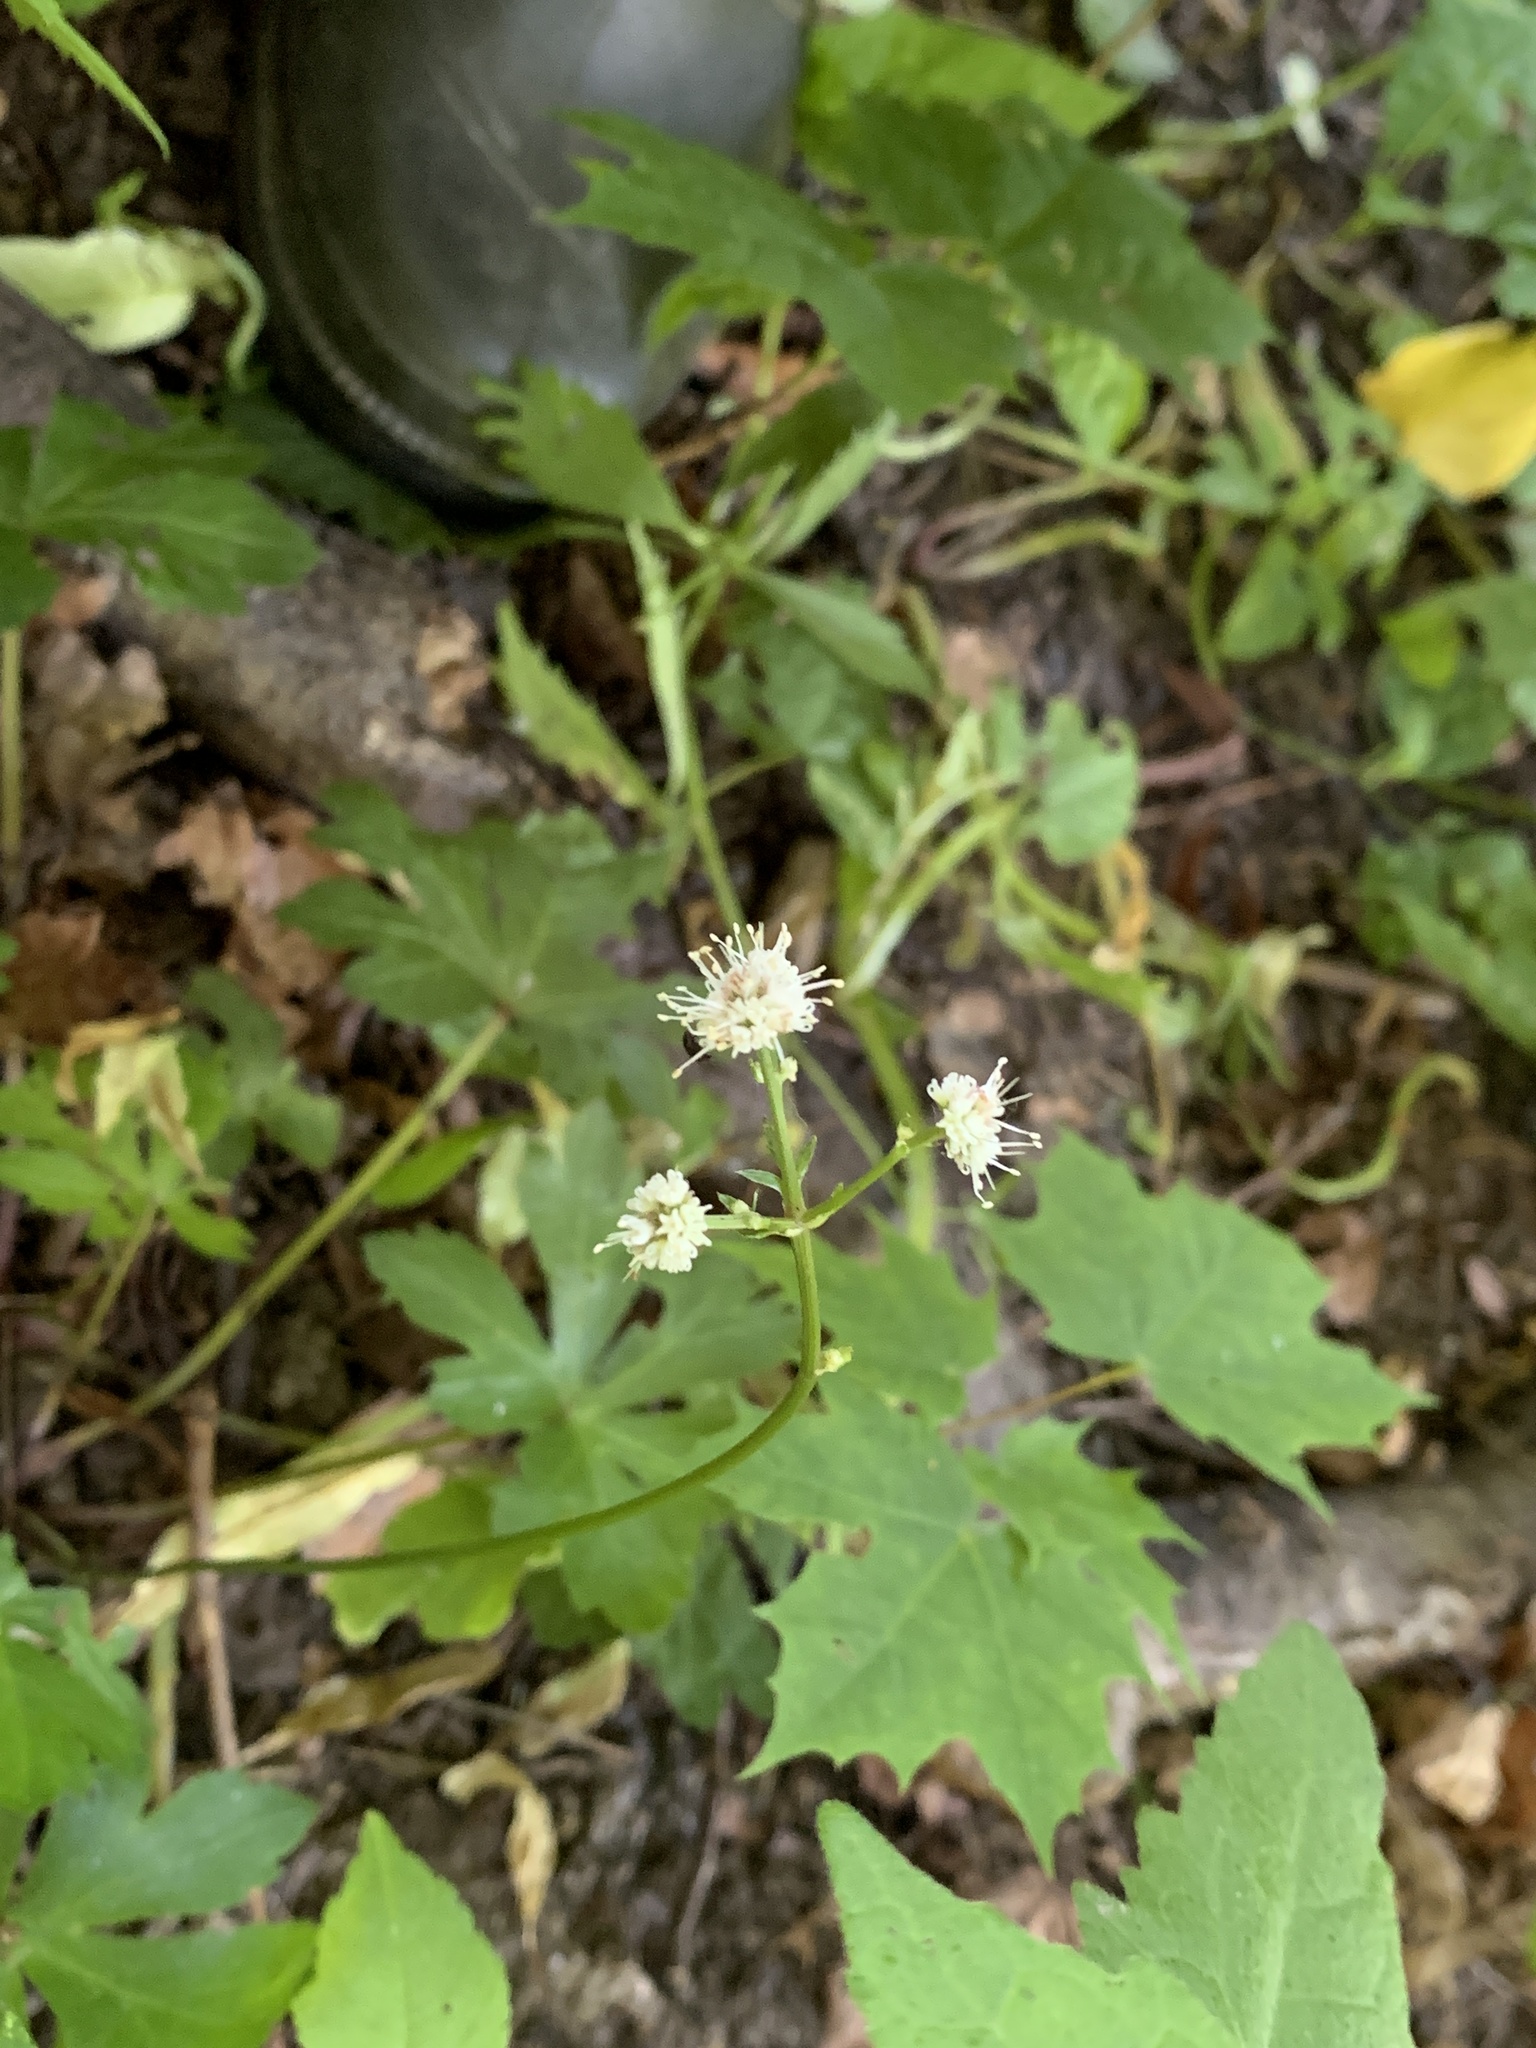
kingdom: Plantae
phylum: Tracheophyta
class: Magnoliopsida
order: Apiales
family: Apiaceae
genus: Sanicula
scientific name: Sanicula europaea
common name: Sanicle
